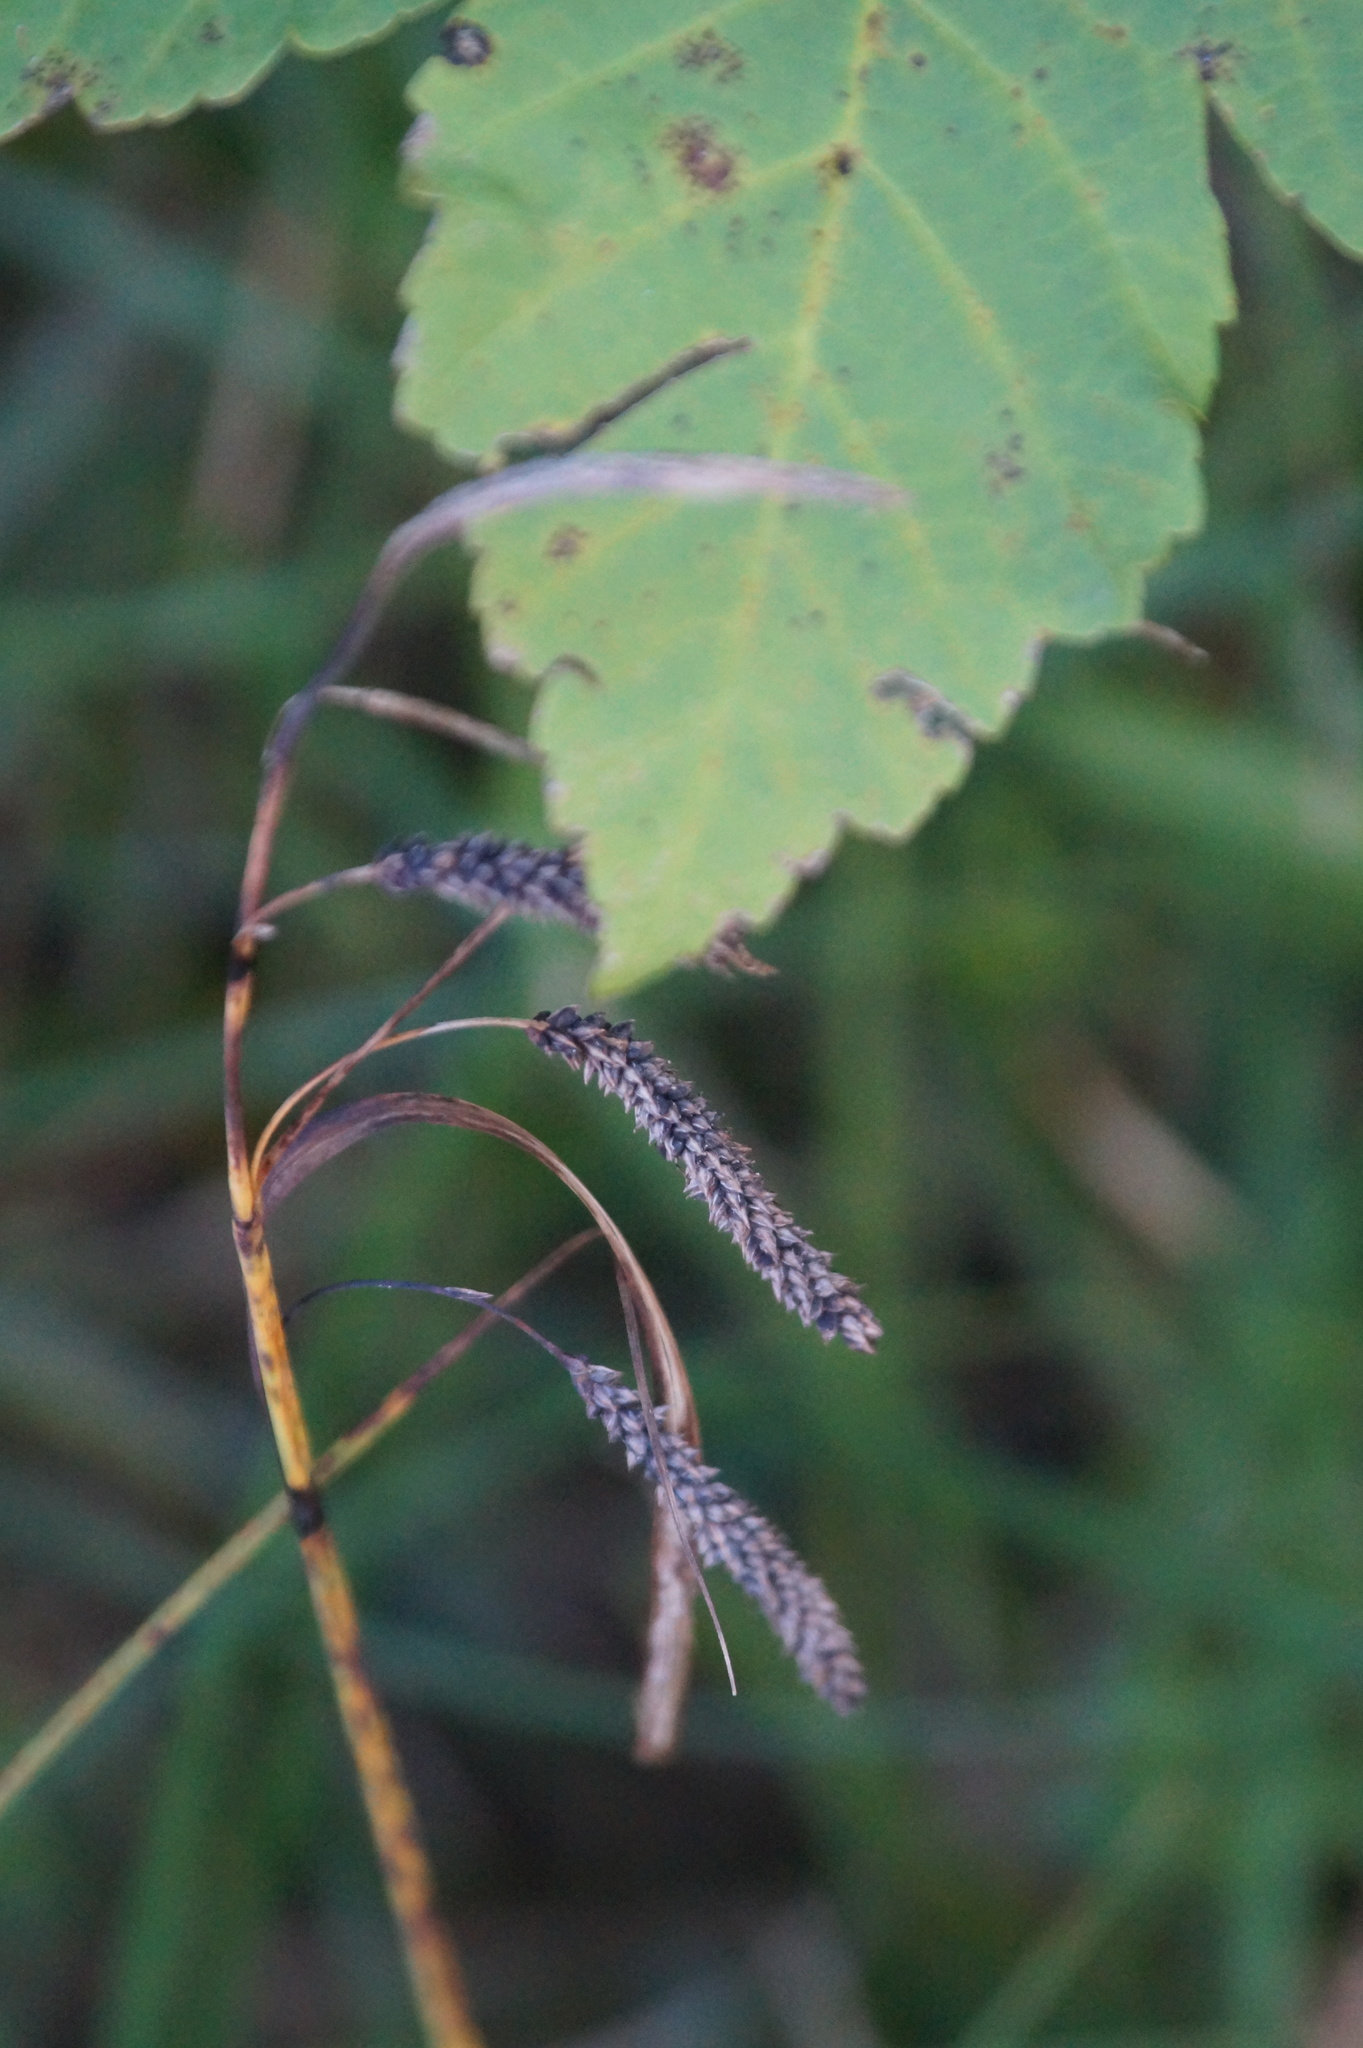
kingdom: Plantae
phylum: Tracheophyta
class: Liliopsida
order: Poales
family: Cyperaceae
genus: Carex
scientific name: Carex flacca
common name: Glaucous sedge
